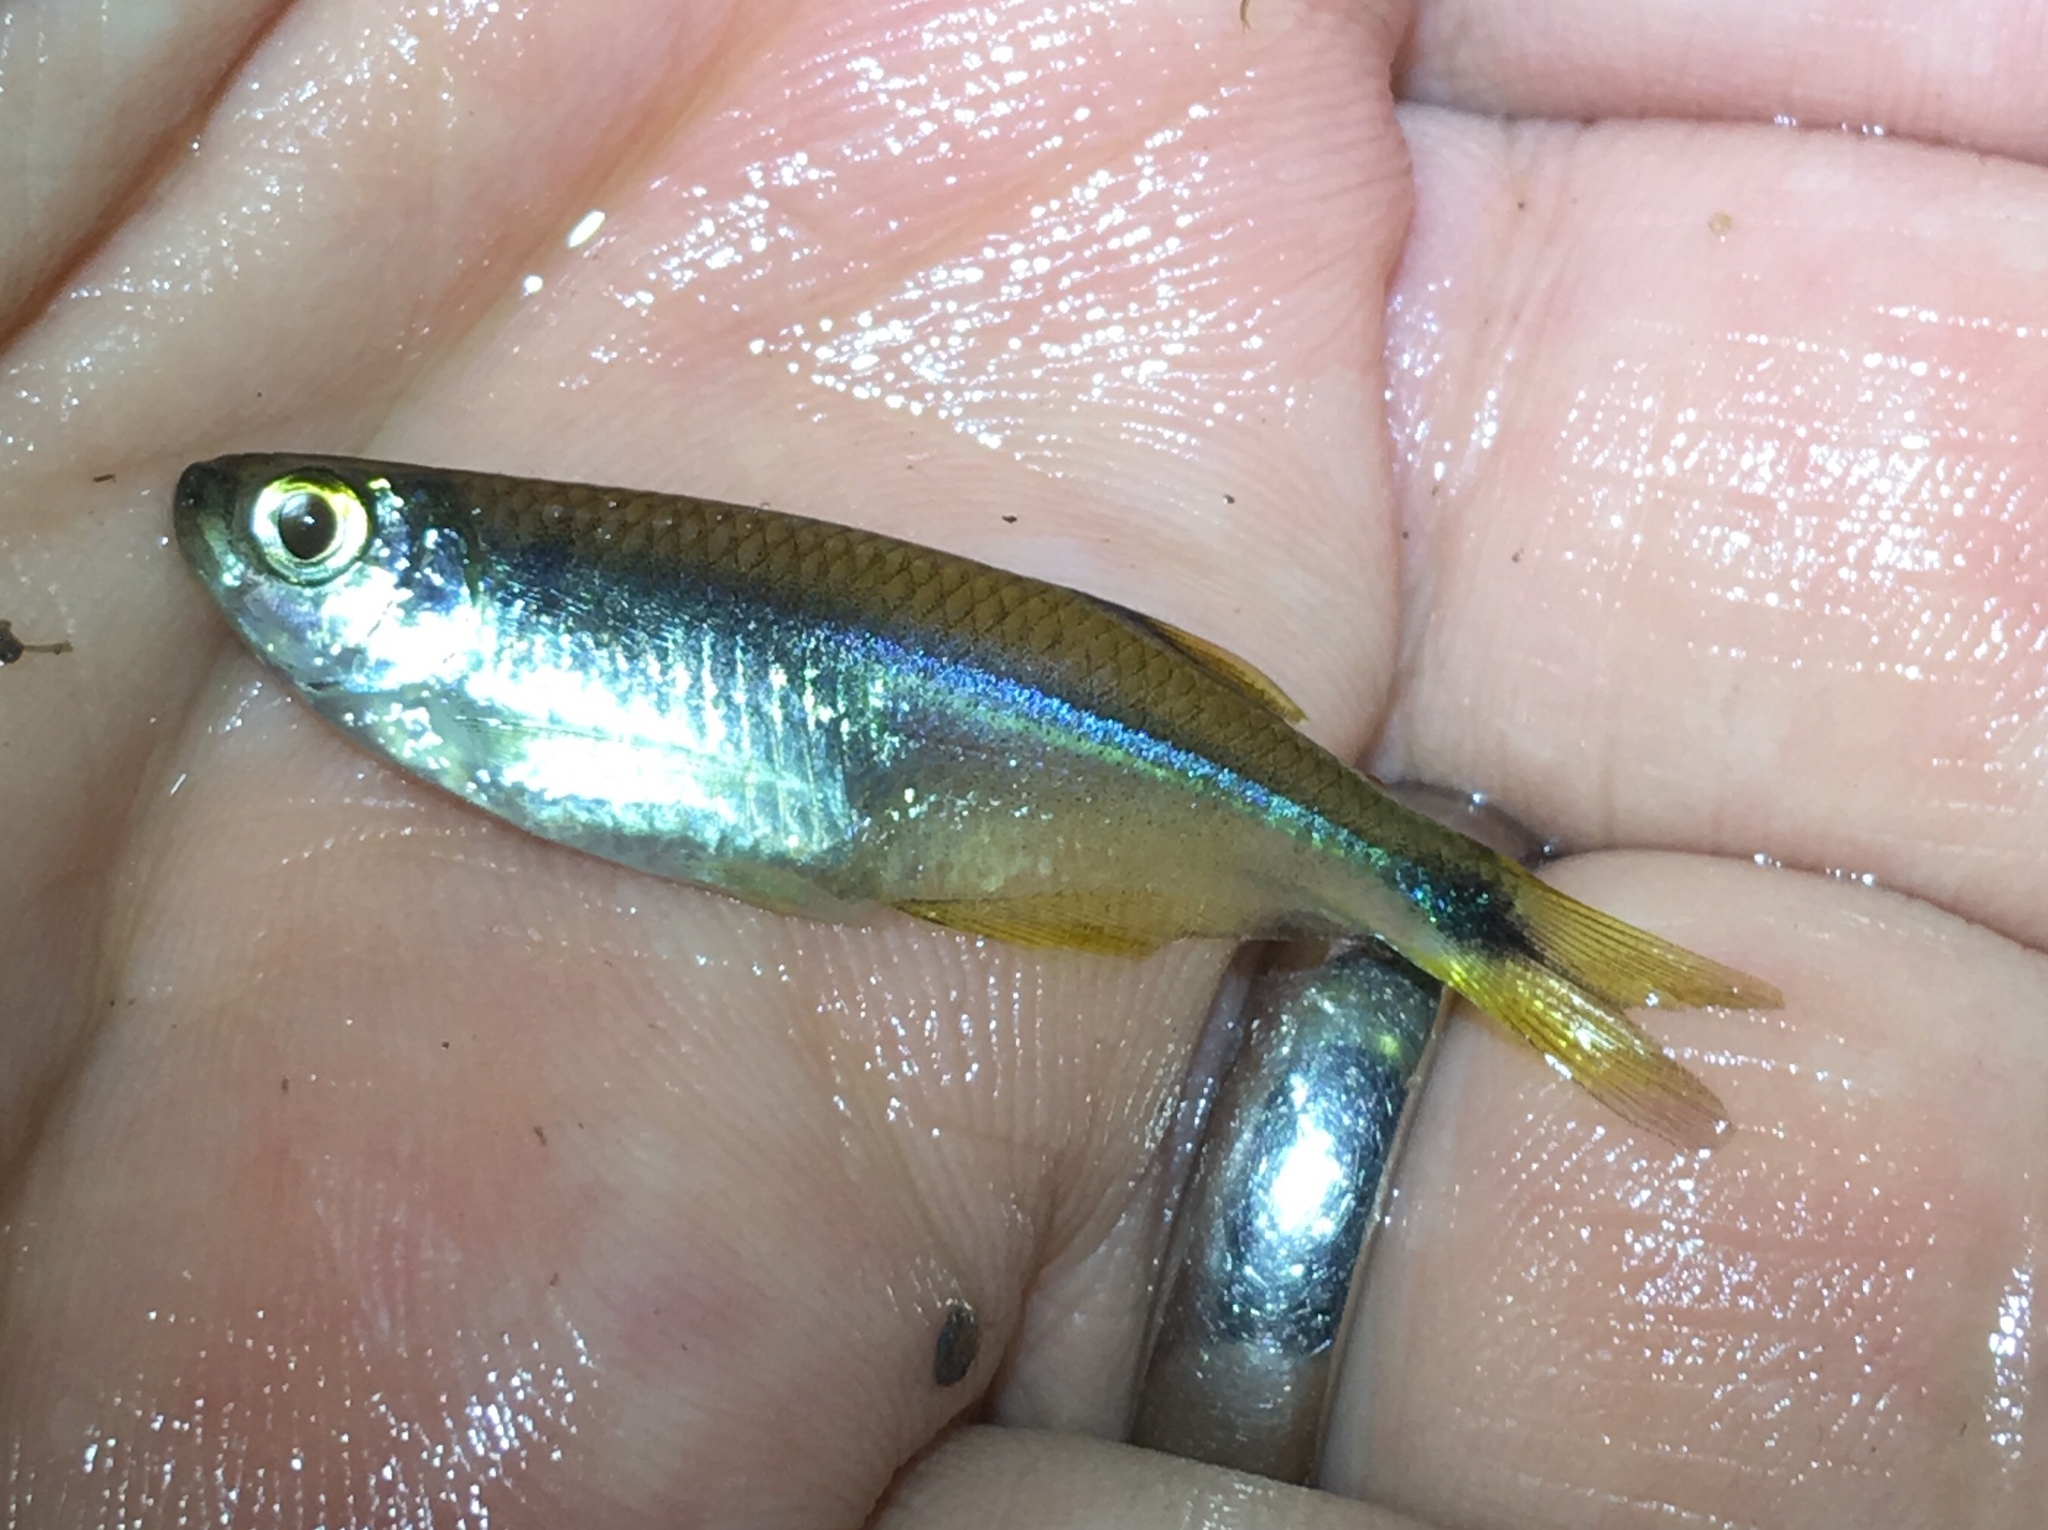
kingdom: Animalia
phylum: Chordata
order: Characiformes
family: Characidae
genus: Gephyrocharax
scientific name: Gephyrocharax melanocheir
